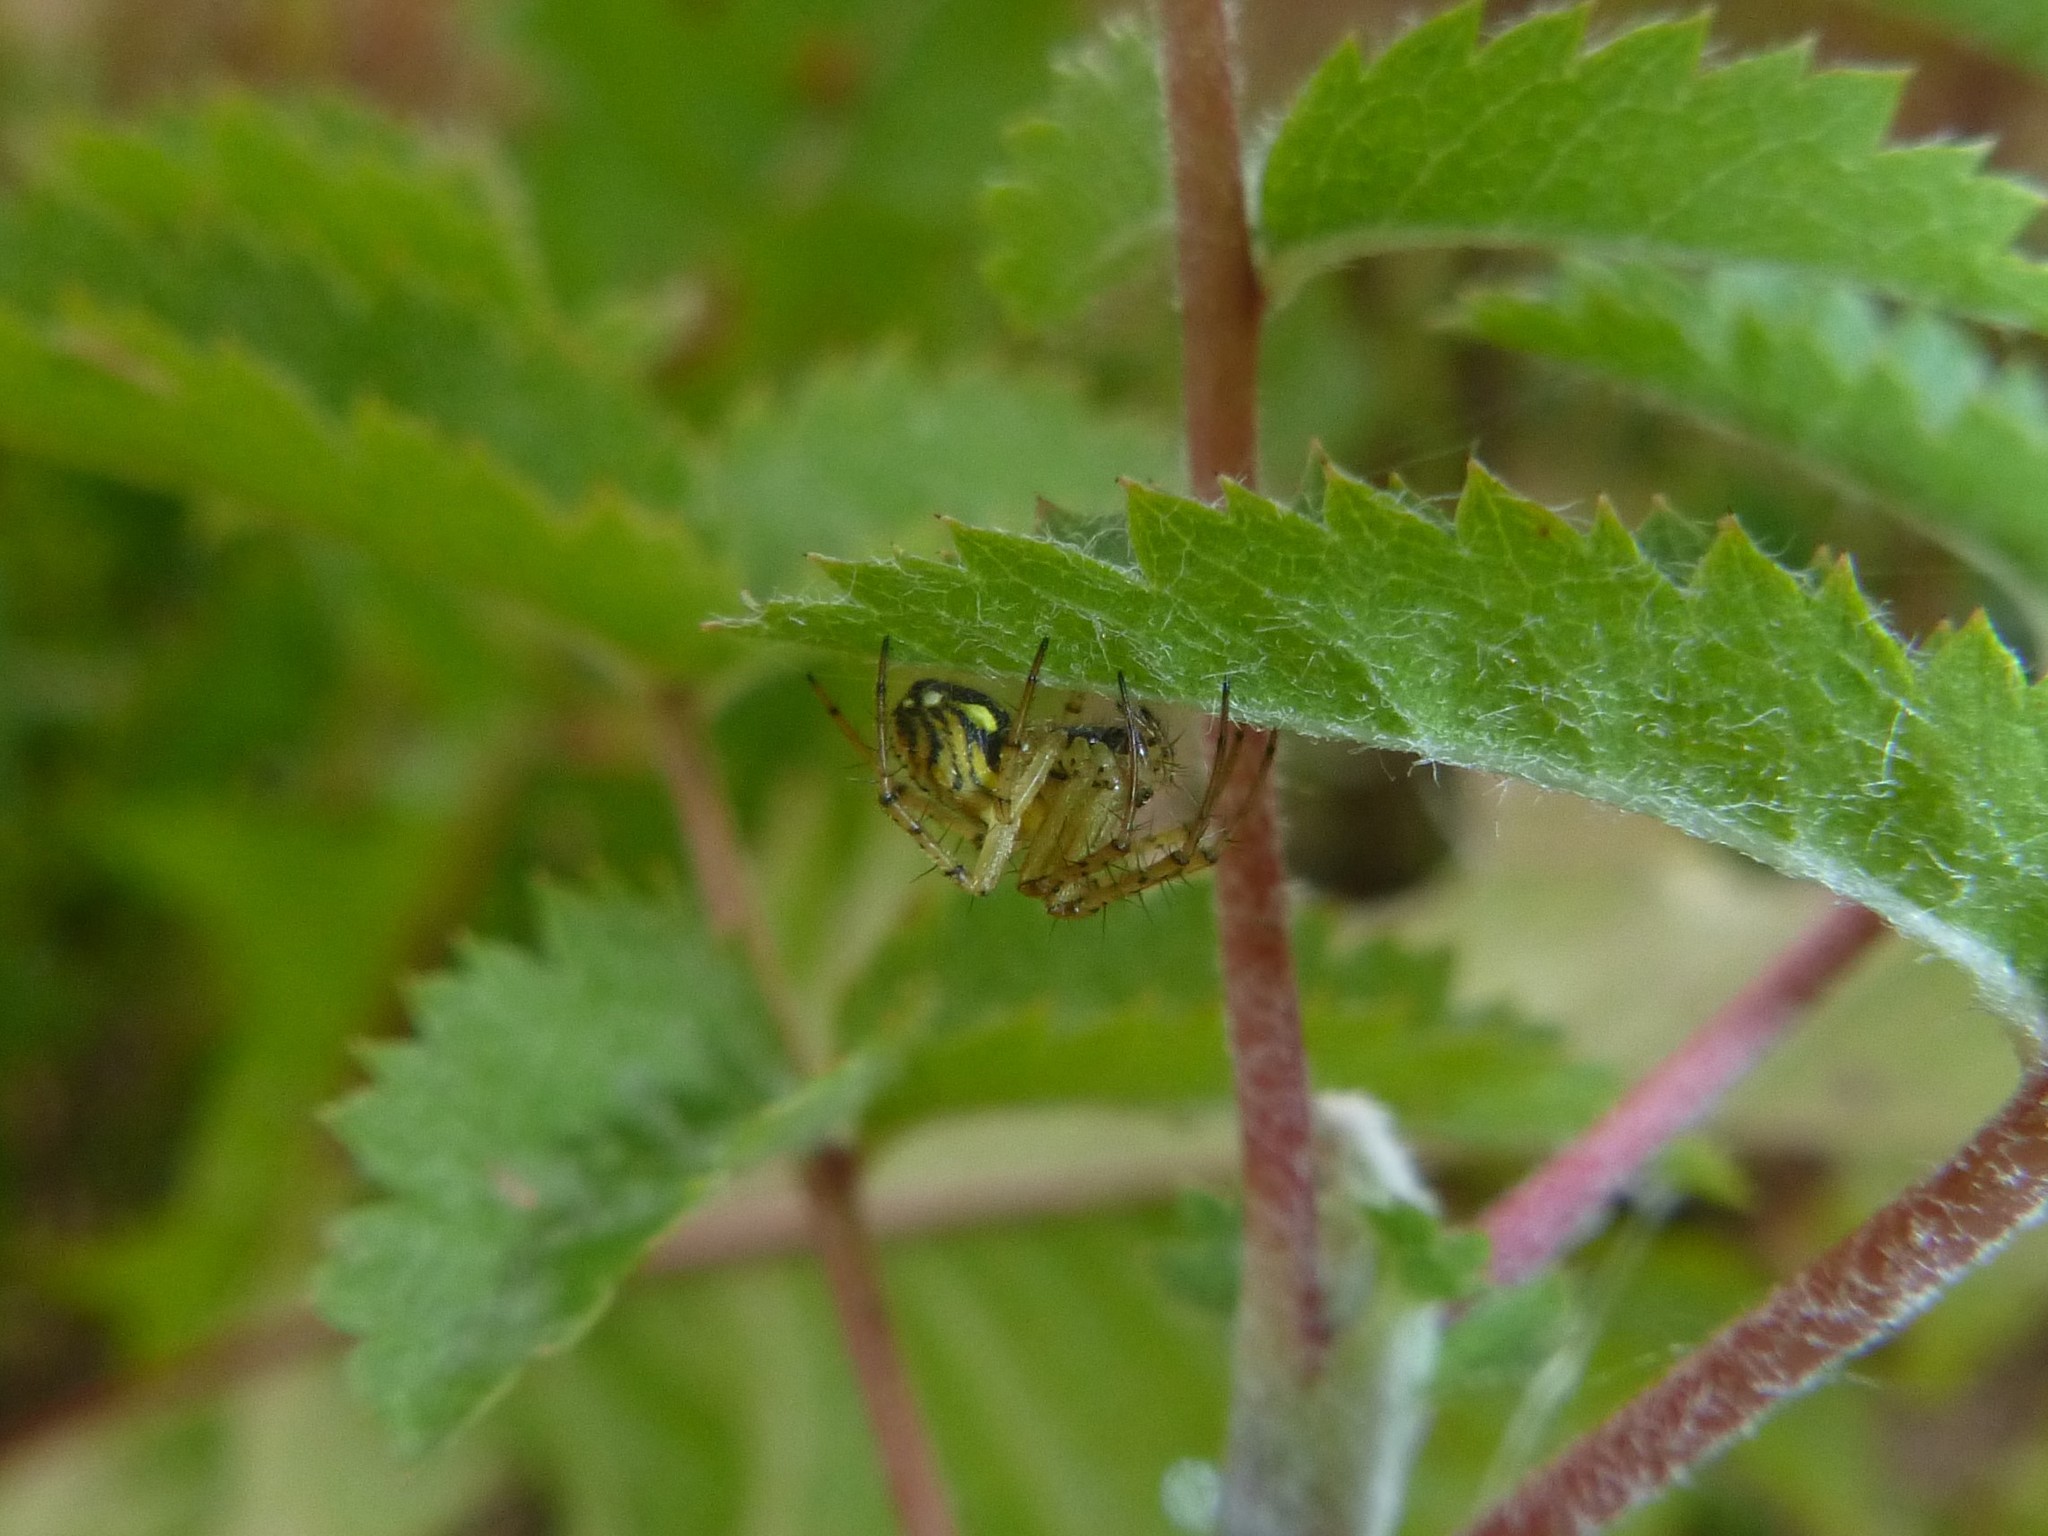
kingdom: Animalia
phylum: Arthropoda
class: Arachnida
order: Araneae
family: Araneidae
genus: Mangora
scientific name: Mangora acalypha
